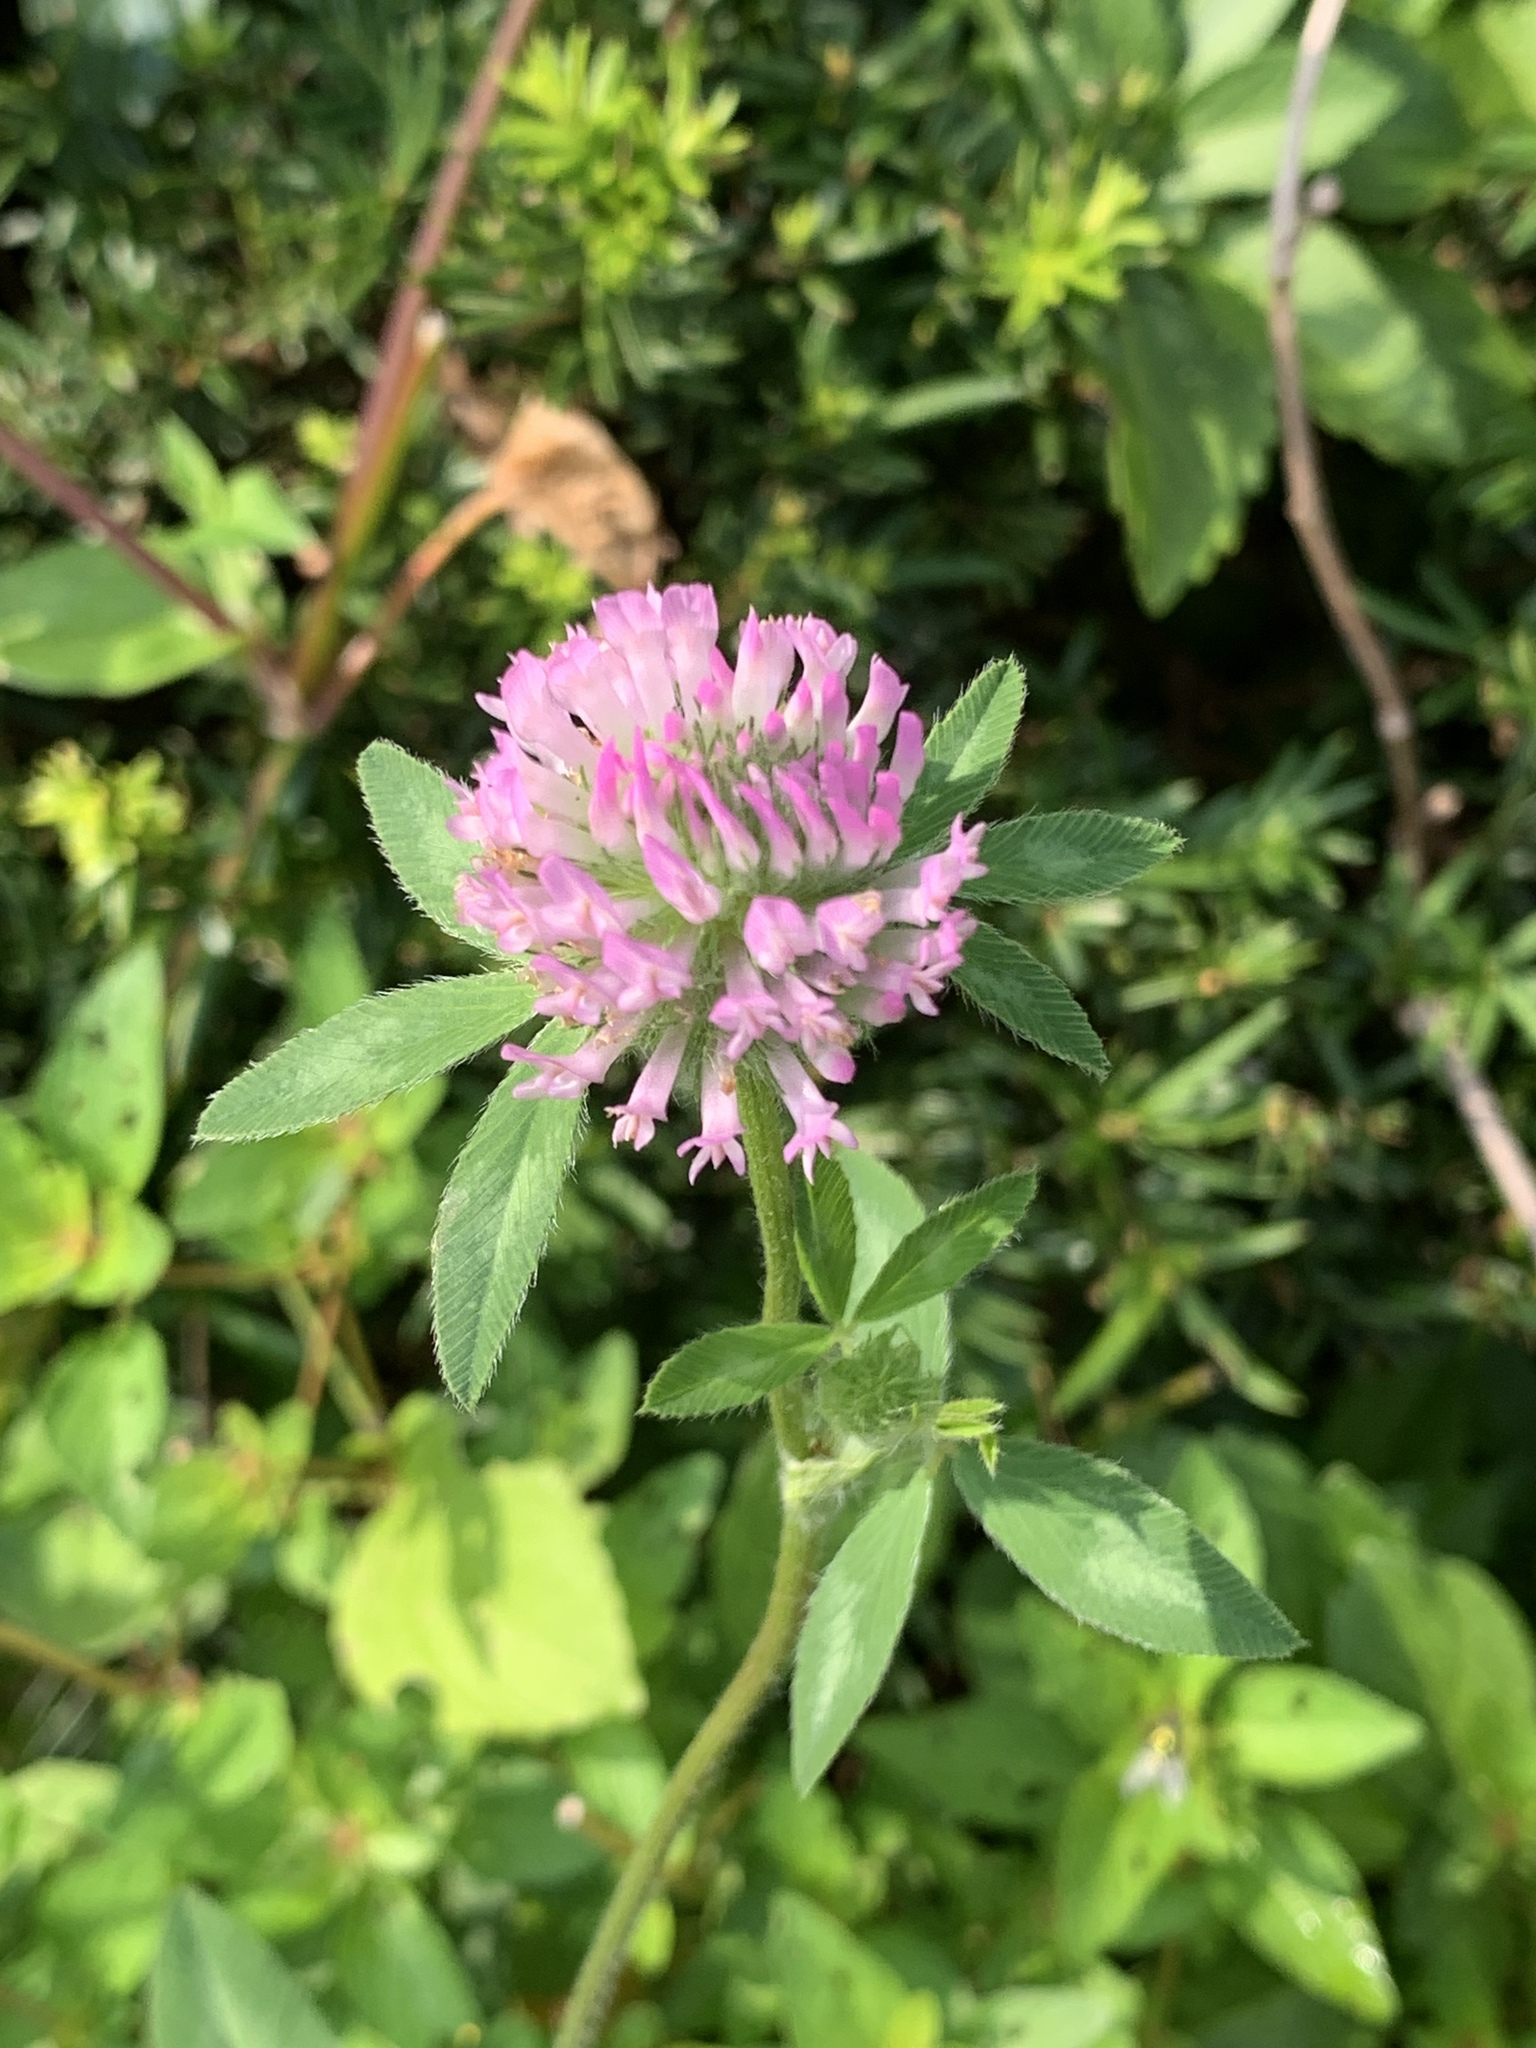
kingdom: Plantae
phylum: Tracheophyta
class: Magnoliopsida
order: Fabales
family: Fabaceae
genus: Trifolium
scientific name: Trifolium pratense
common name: Red clover
